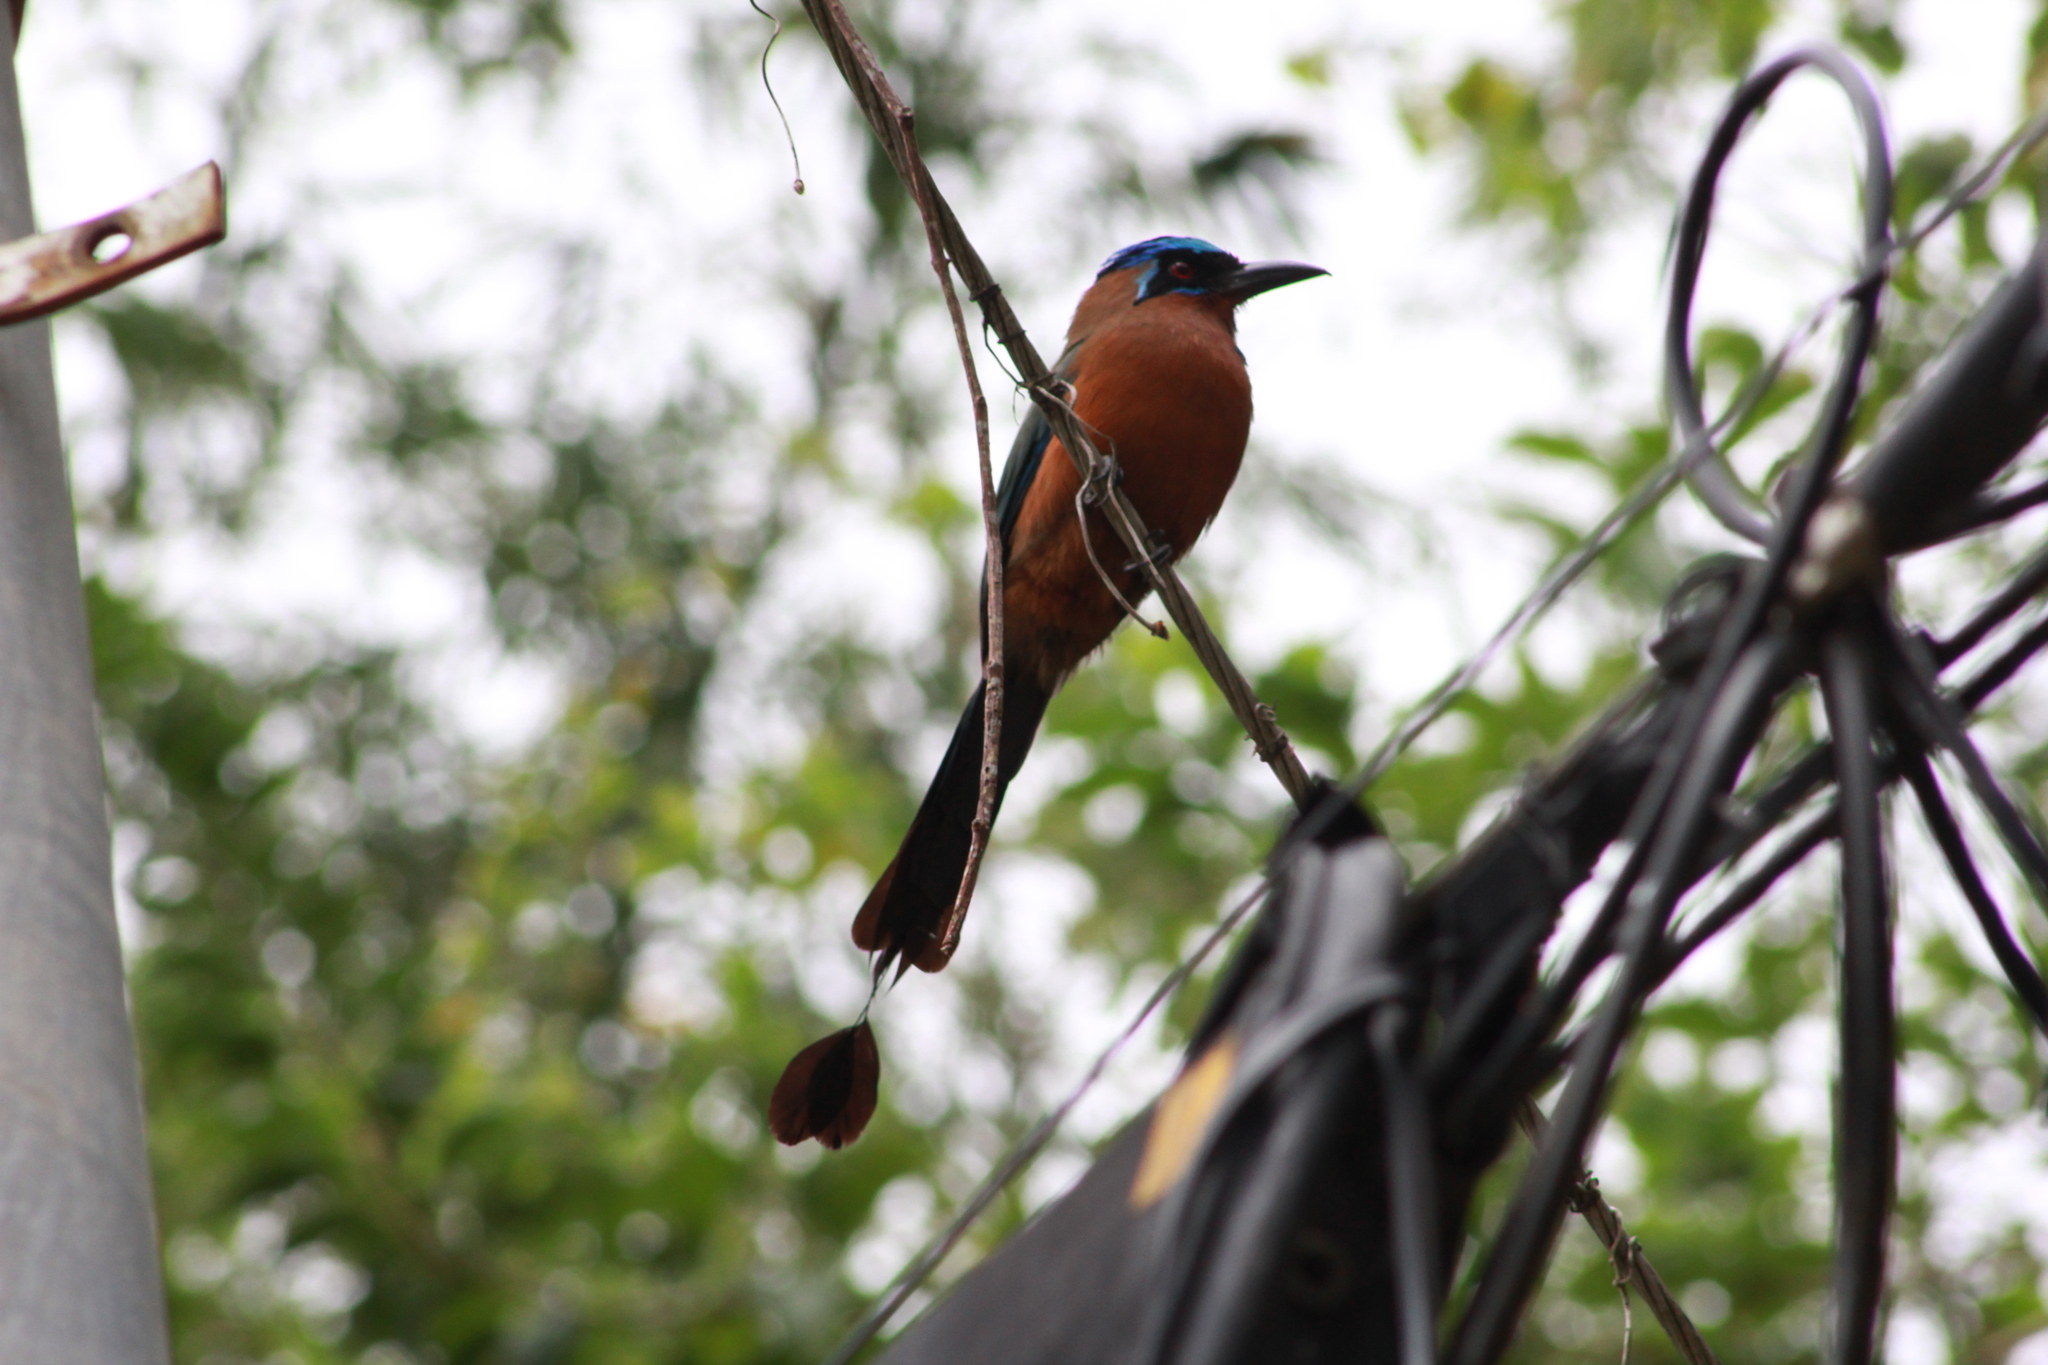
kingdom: Animalia
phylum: Chordata
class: Aves
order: Coraciiformes
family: Momotidae
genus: Momotus
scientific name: Momotus bahamensis
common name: Trinidad motmot
